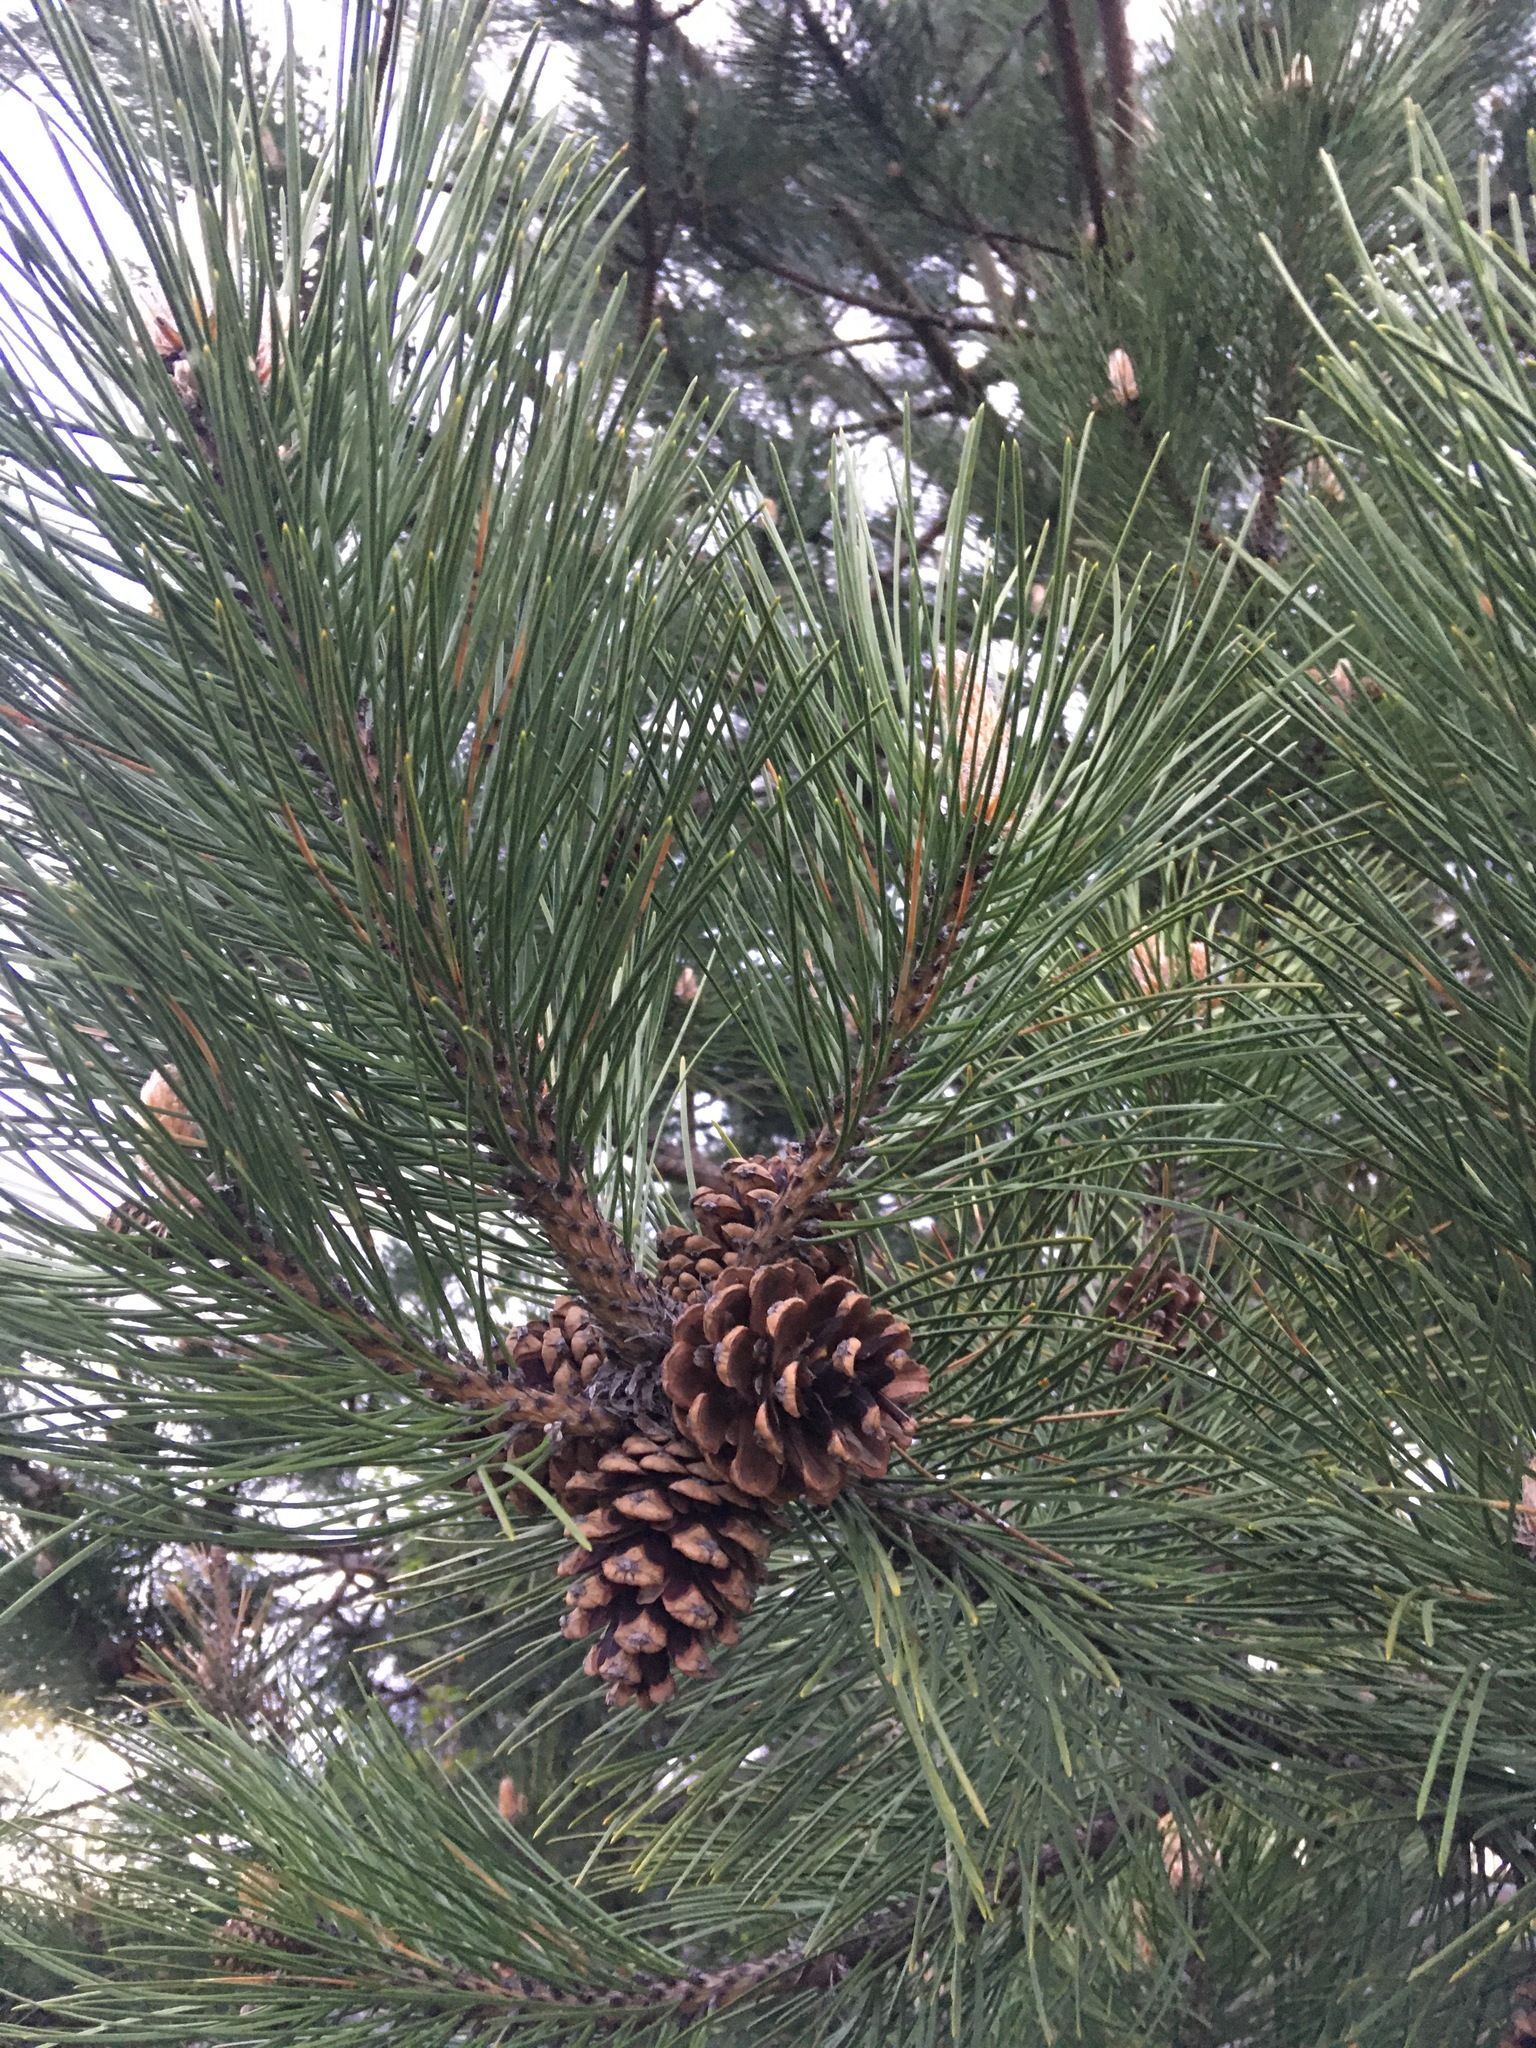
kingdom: Plantae
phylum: Tracheophyta
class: Pinopsida
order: Pinales
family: Pinaceae
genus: Pinus
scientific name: Pinus resinosa
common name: Norway pine
